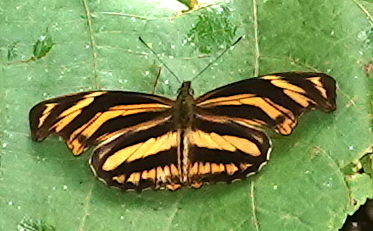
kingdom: Animalia
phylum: Arthropoda
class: Insecta
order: Lepidoptera
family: Nymphalidae
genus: Podotricha
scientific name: Podotricha judith
